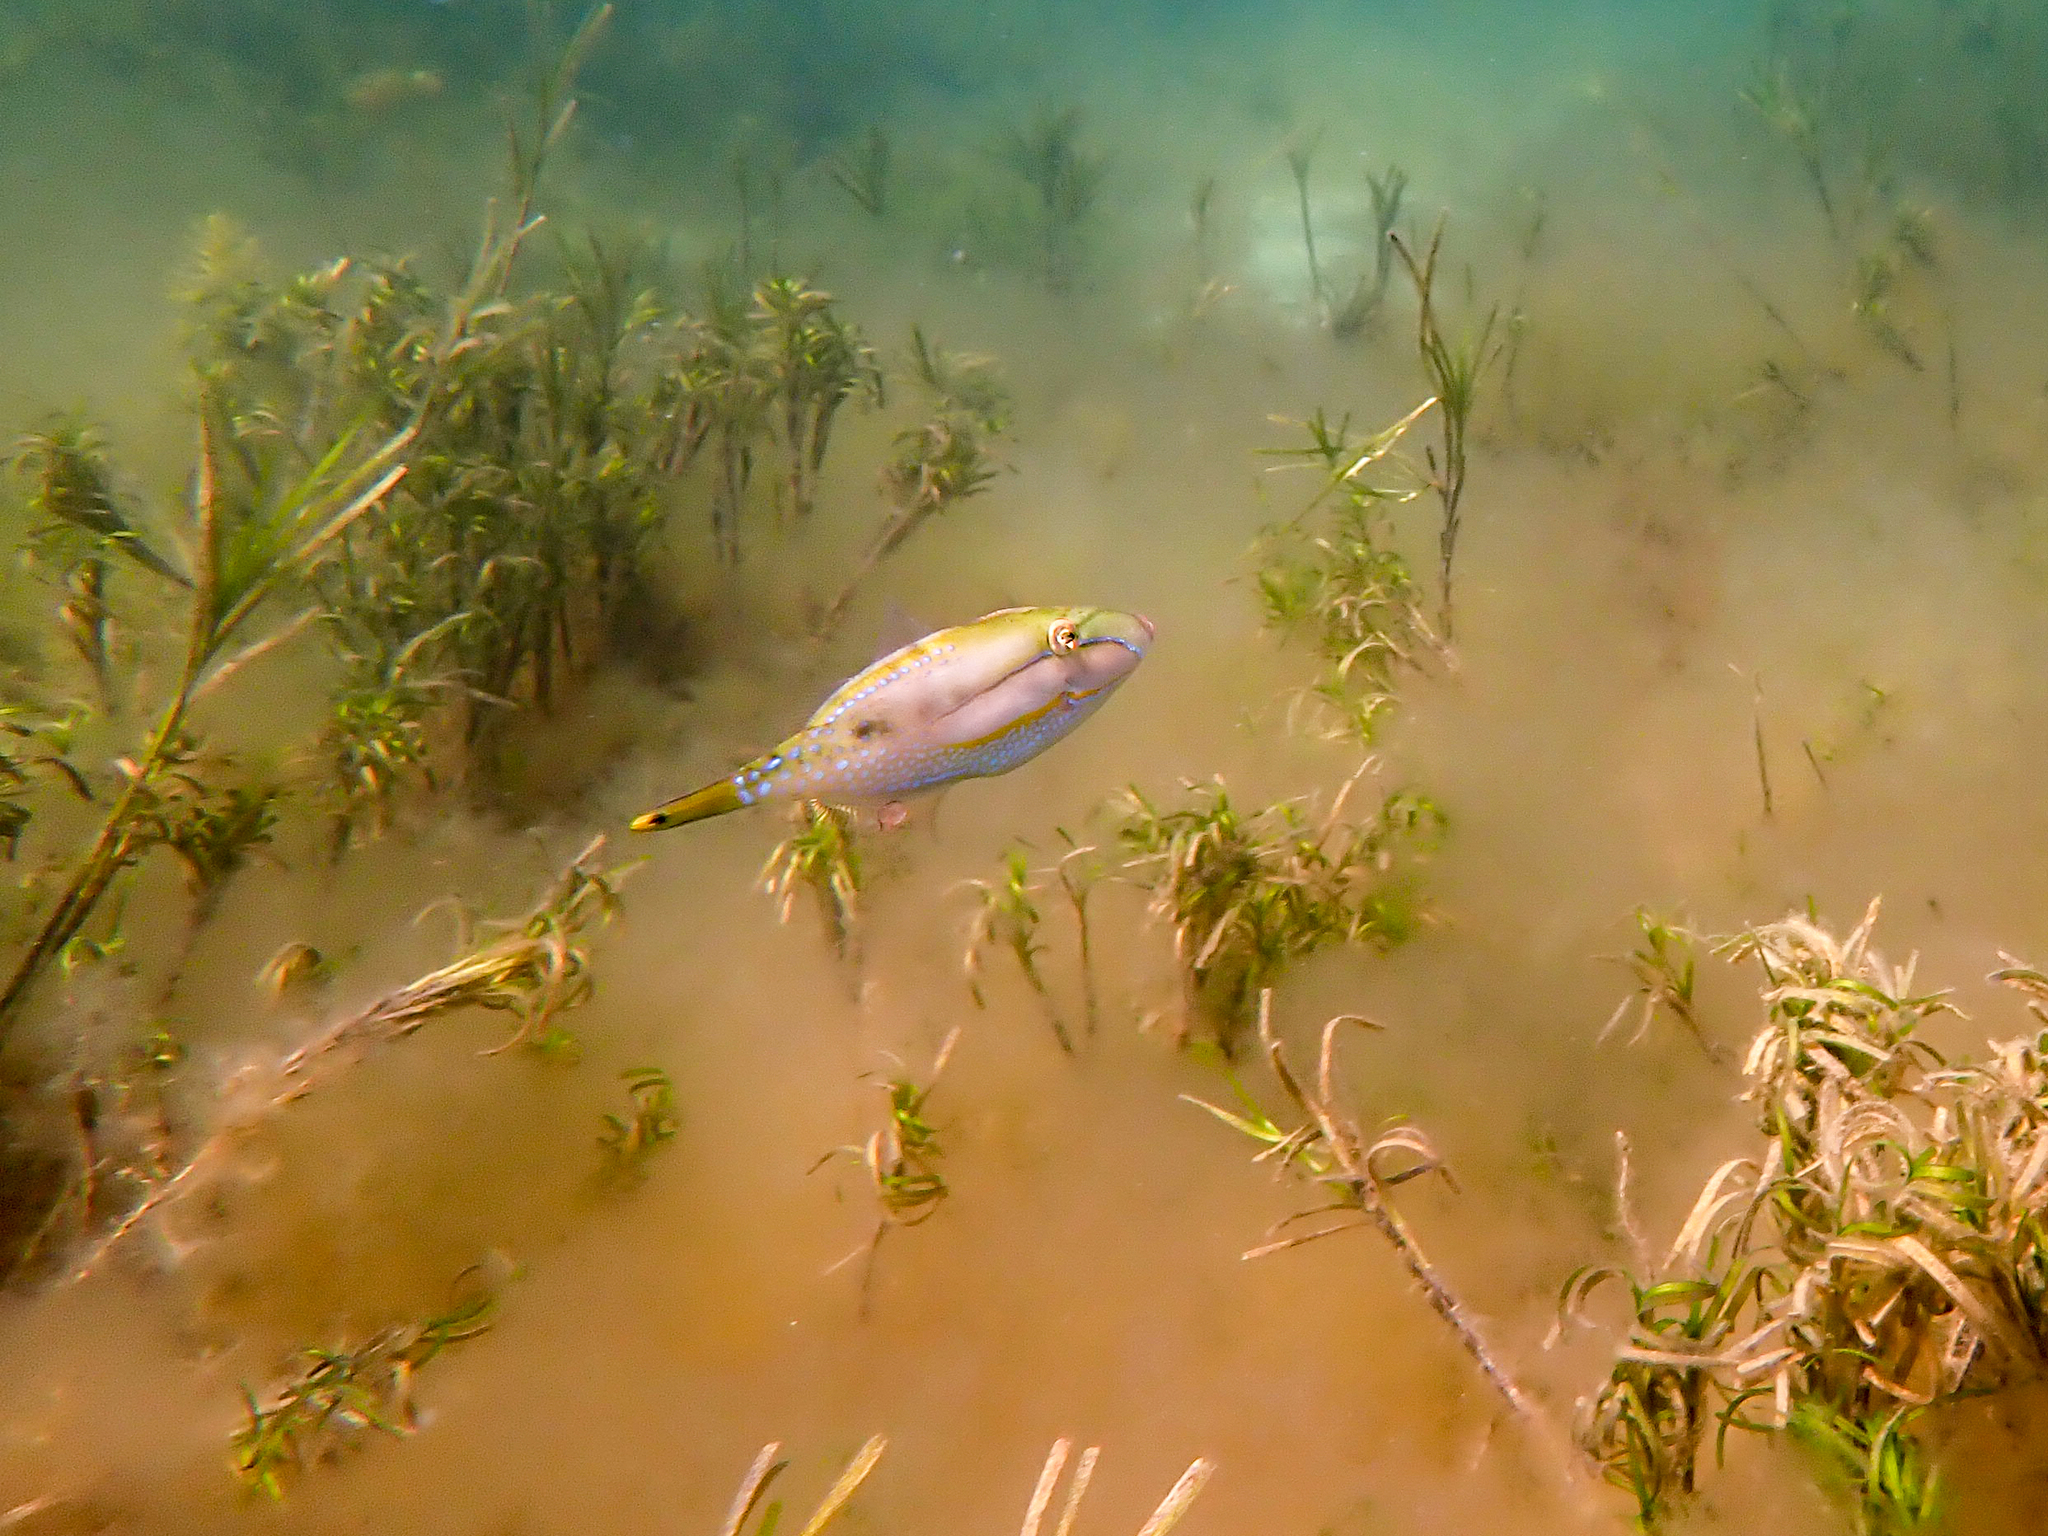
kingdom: Animalia
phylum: Chordata
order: Tetraodontiformes
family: Monacanthidae
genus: Acanthaluteres
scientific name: Acanthaluteres spilomelanurus
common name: Bridled leatherjacket
